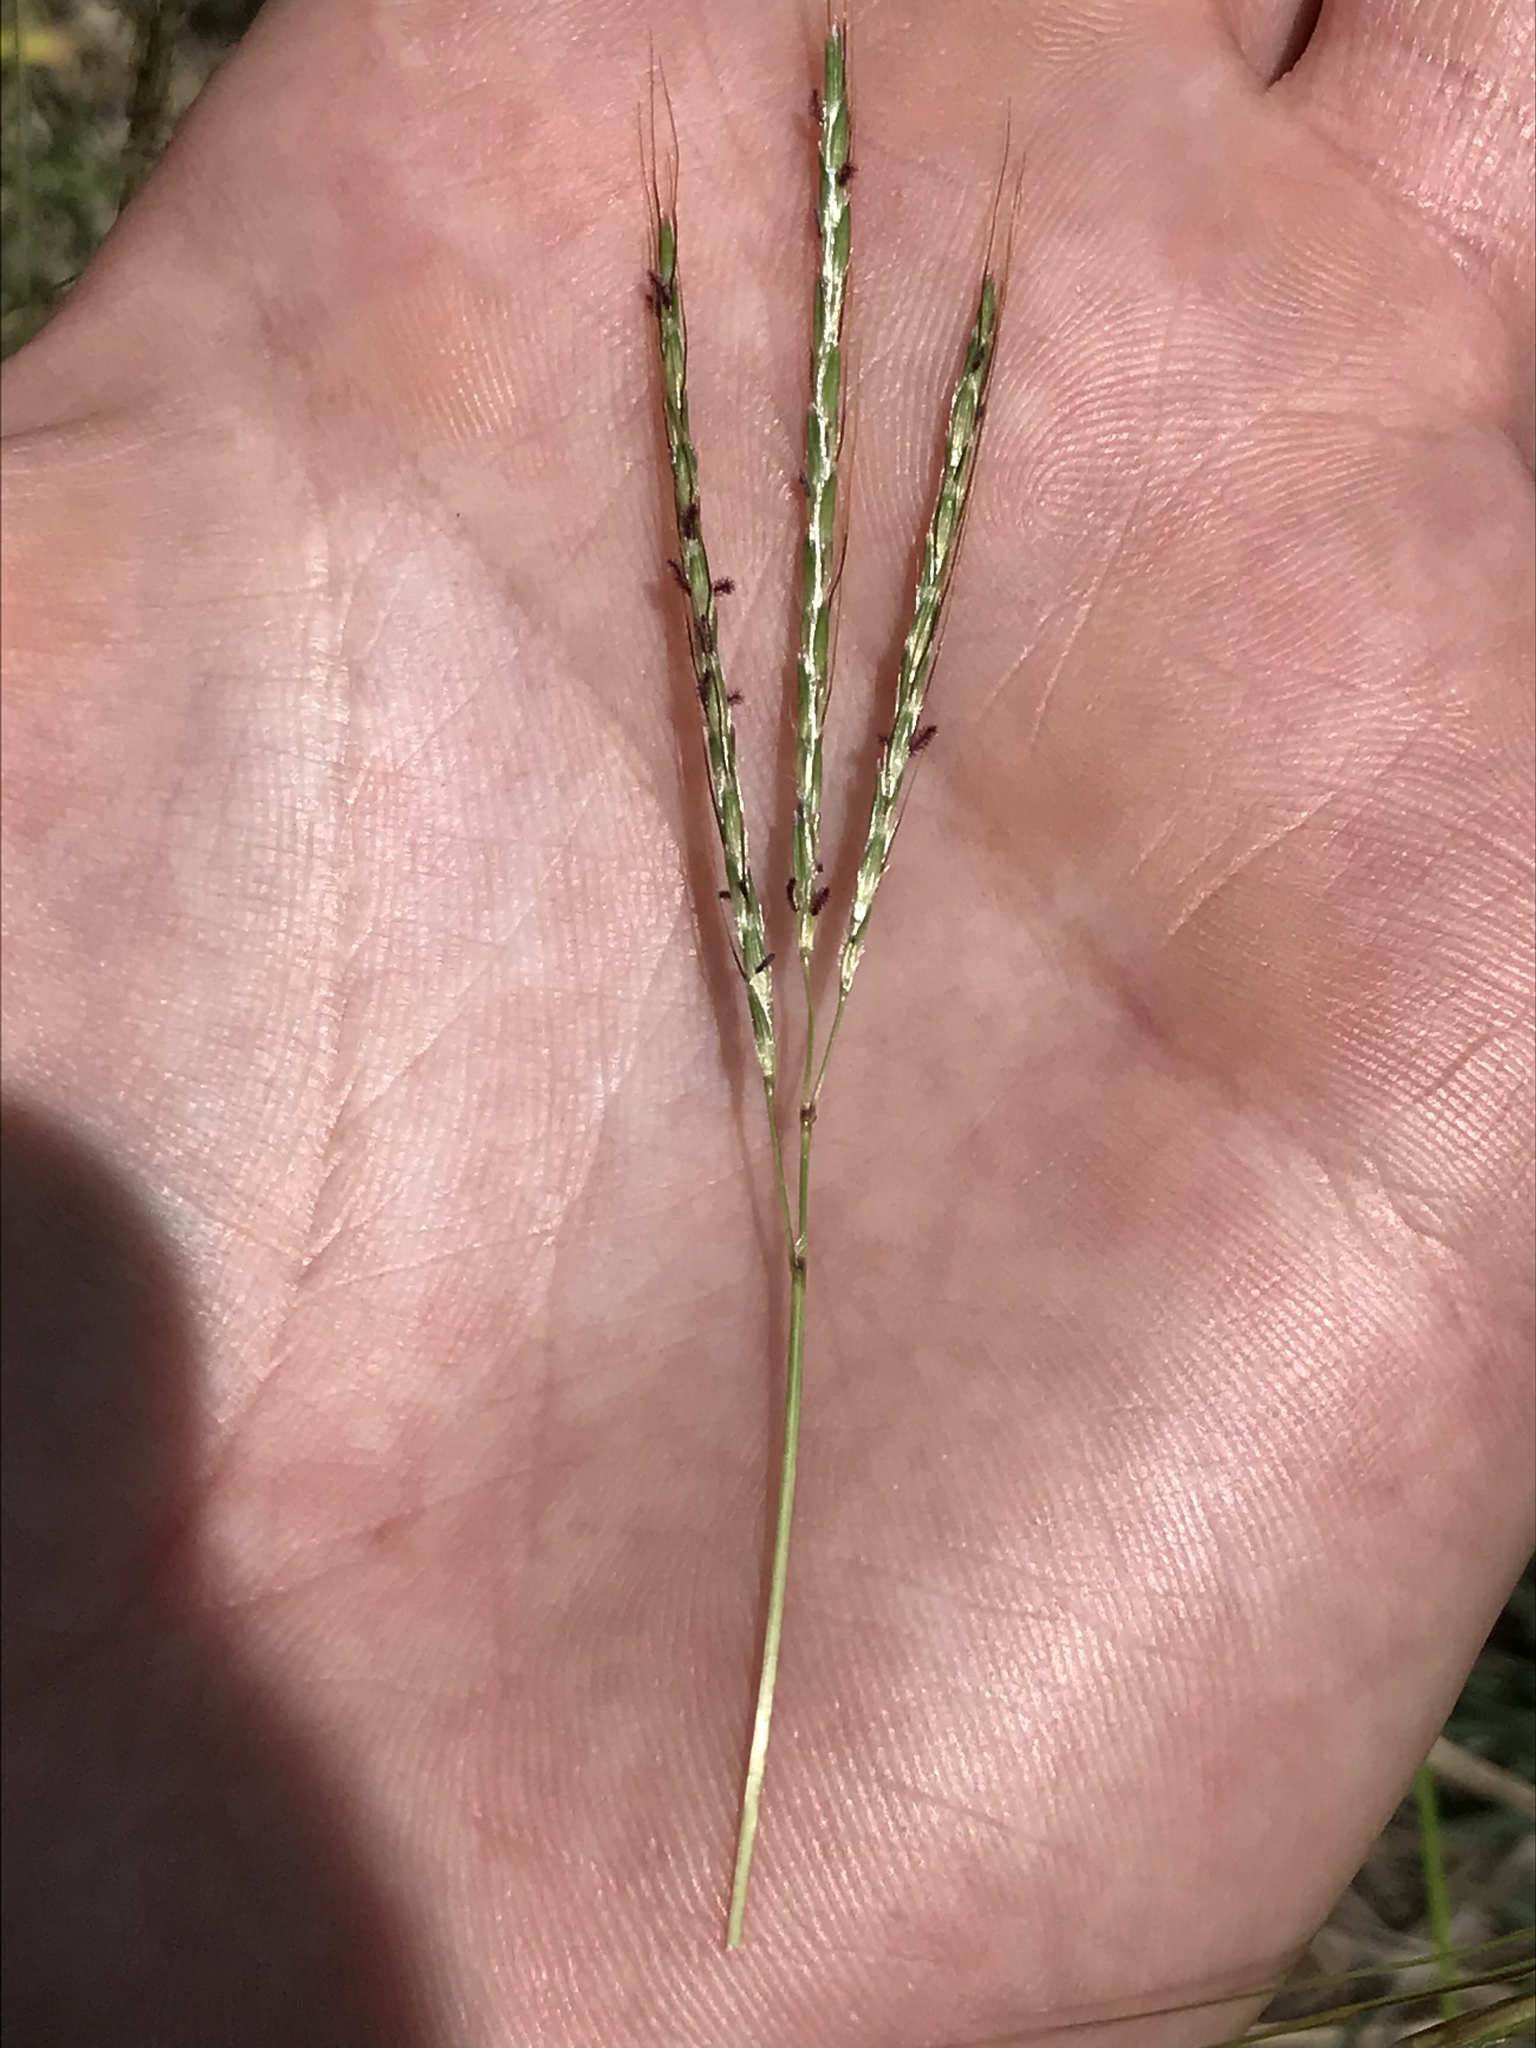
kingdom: Plantae
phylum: Tracheophyta
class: Liliopsida
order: Poales
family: Poaceae
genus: Bothriochloa
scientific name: Bothriochloa ischaemum
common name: Yellow bluestem
